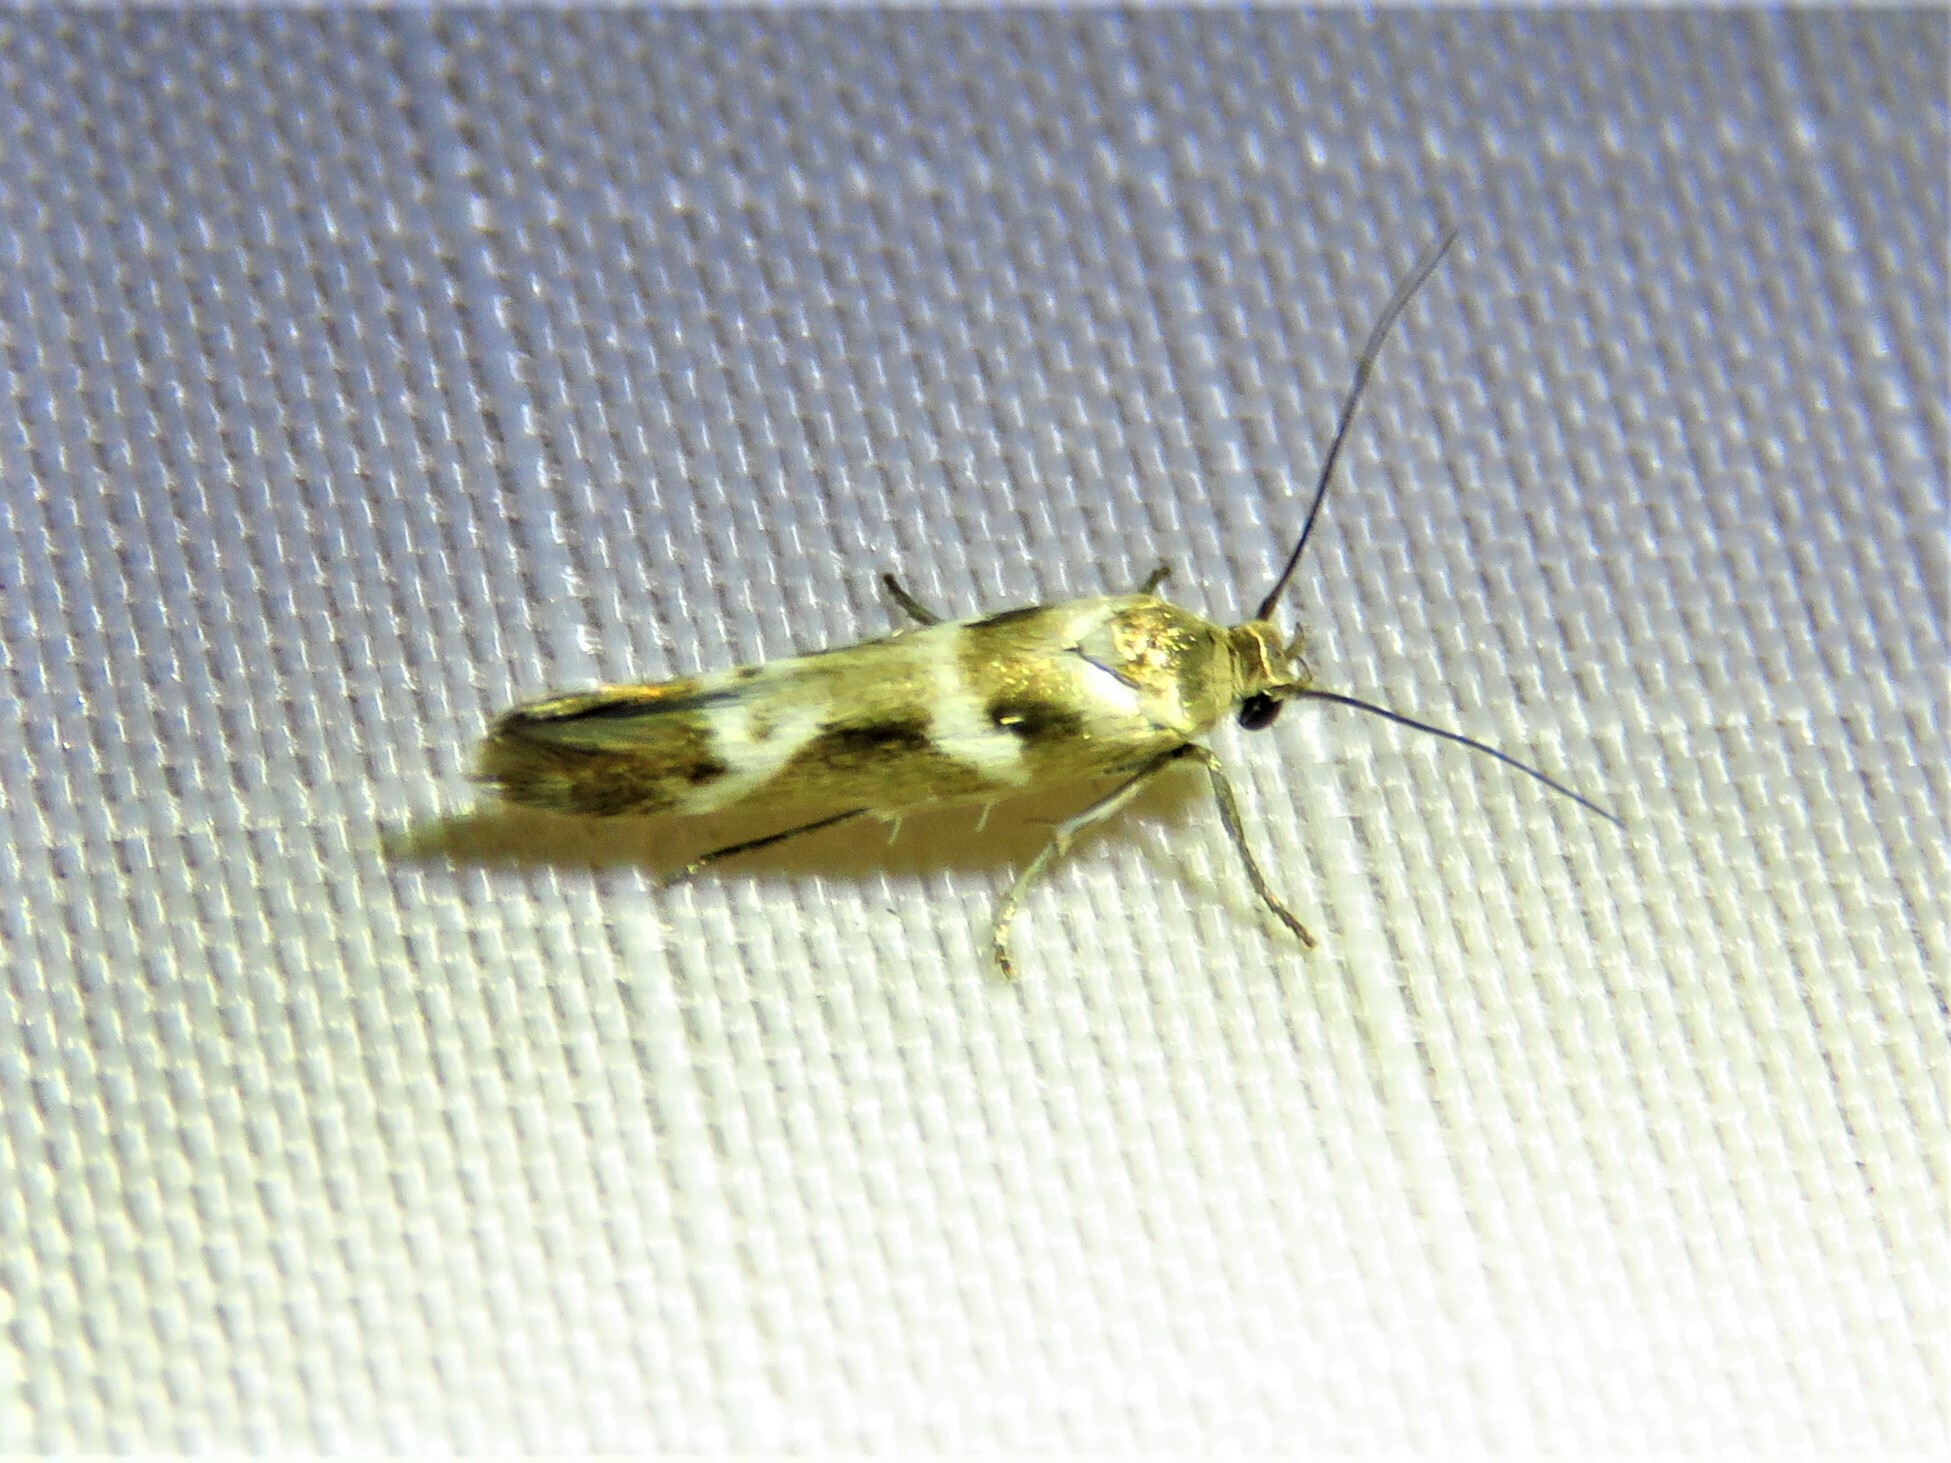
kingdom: Animalia
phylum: Arthropoda
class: Insecta
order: Lepidoptera
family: Scythrididae
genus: Scythris
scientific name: Scythris trivinctella
